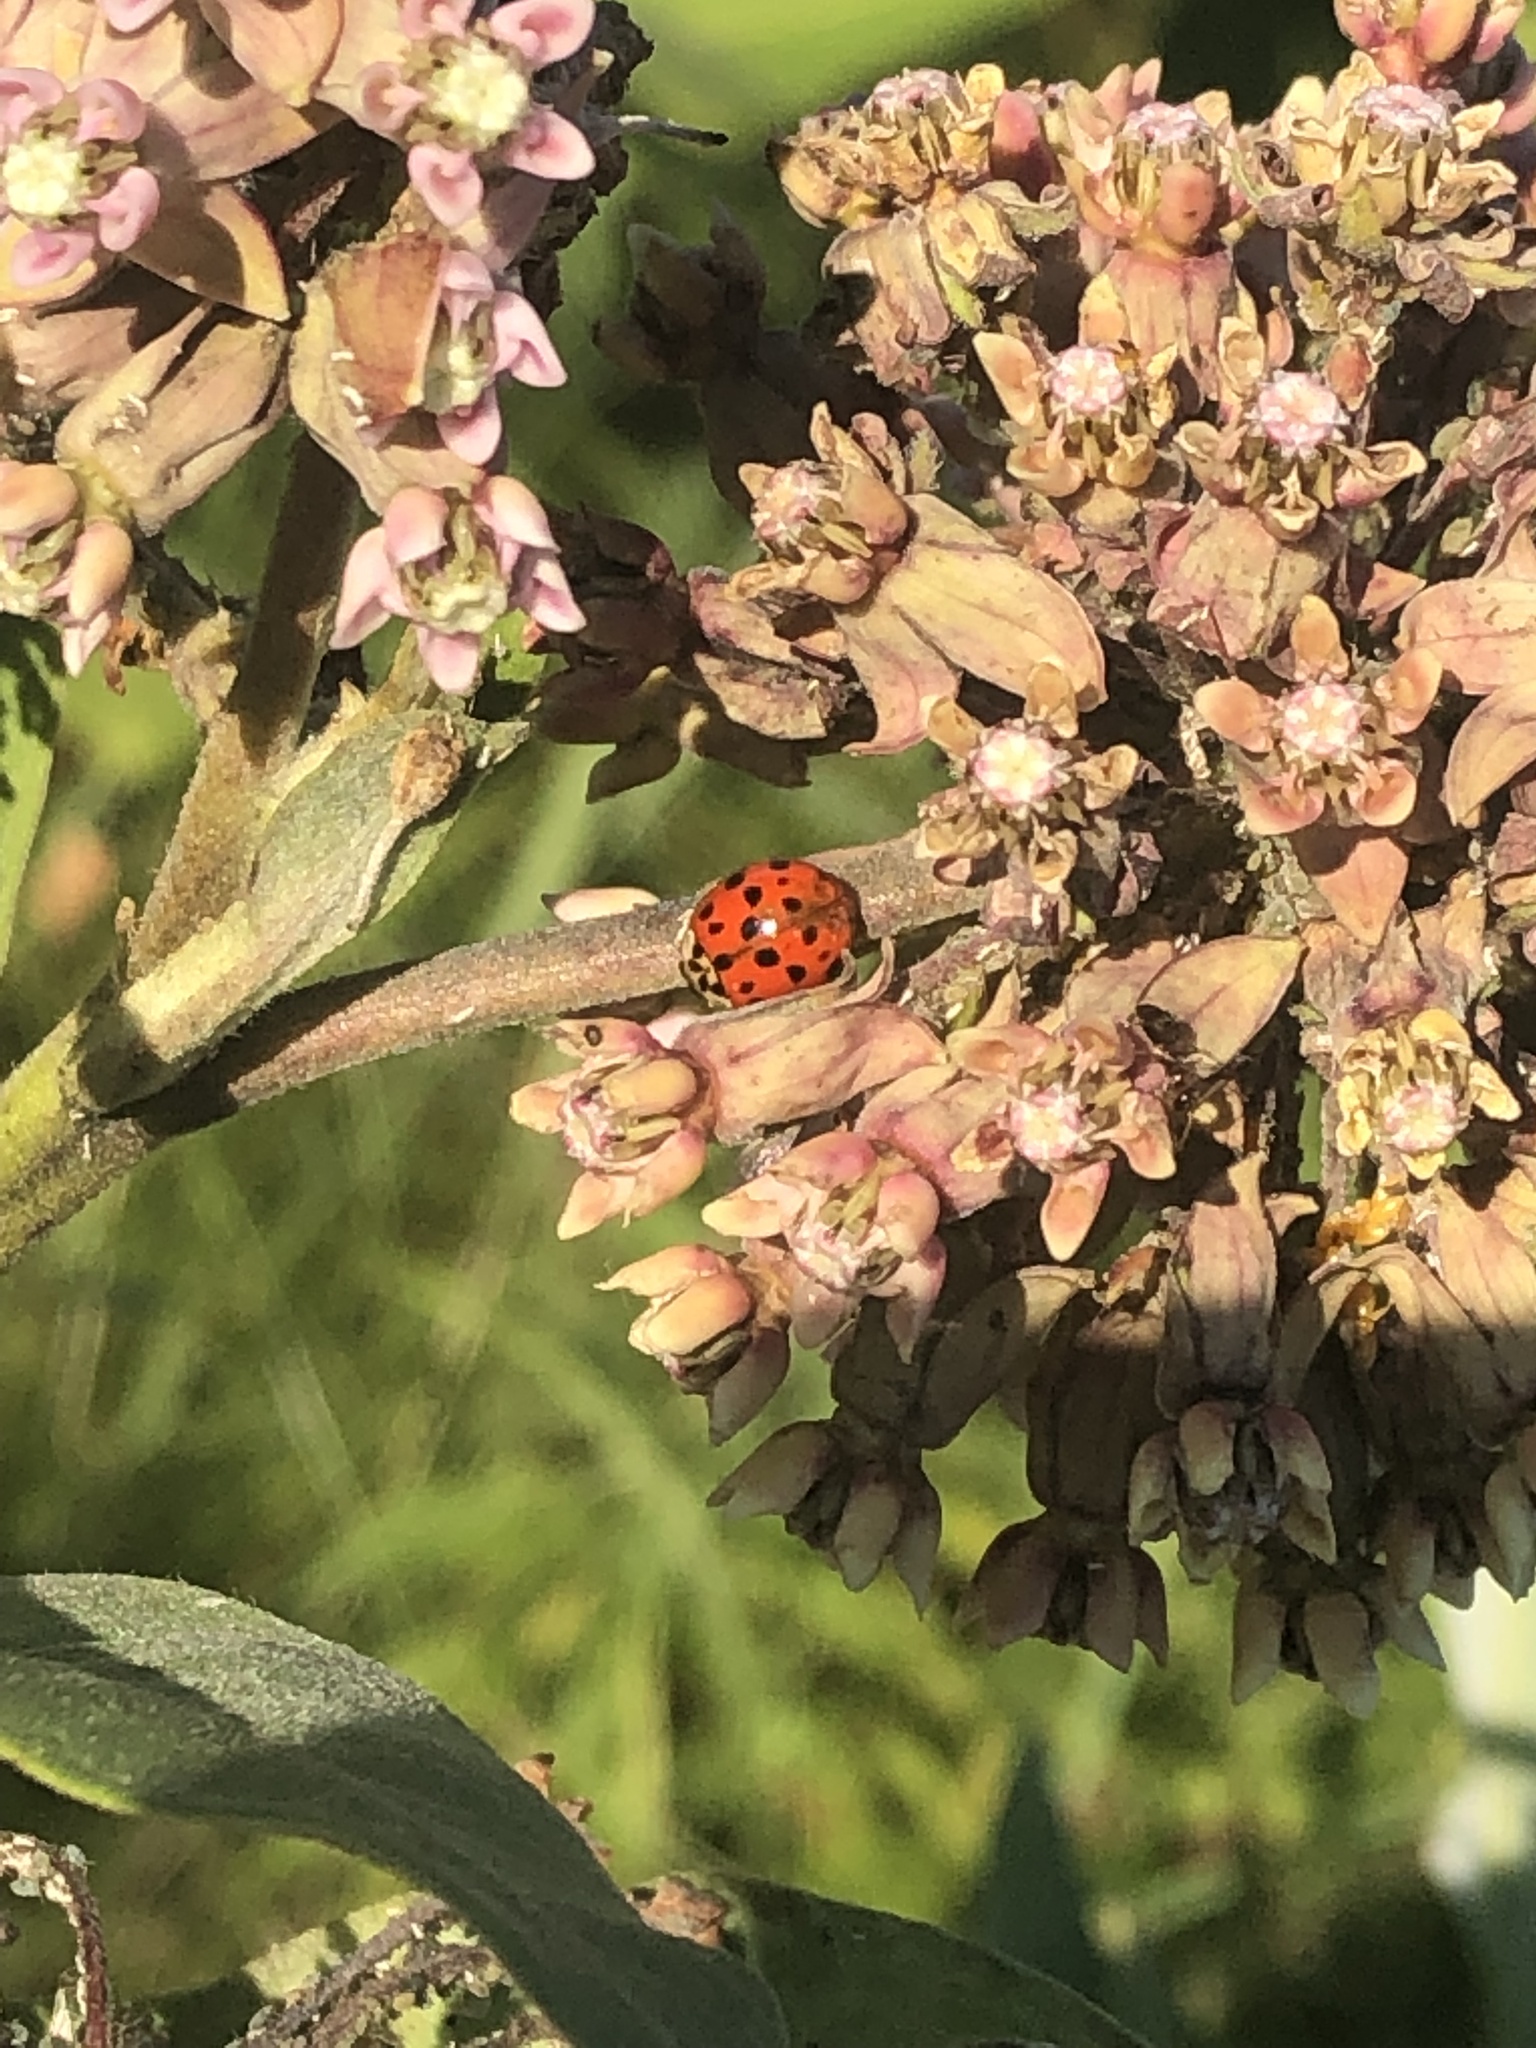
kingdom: Animalia
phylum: Arthropoda
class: Insecta
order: Coleoptera
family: Coccinellidae
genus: Harmonia
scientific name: Harmonia axyridis
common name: Harlequin ladybird
